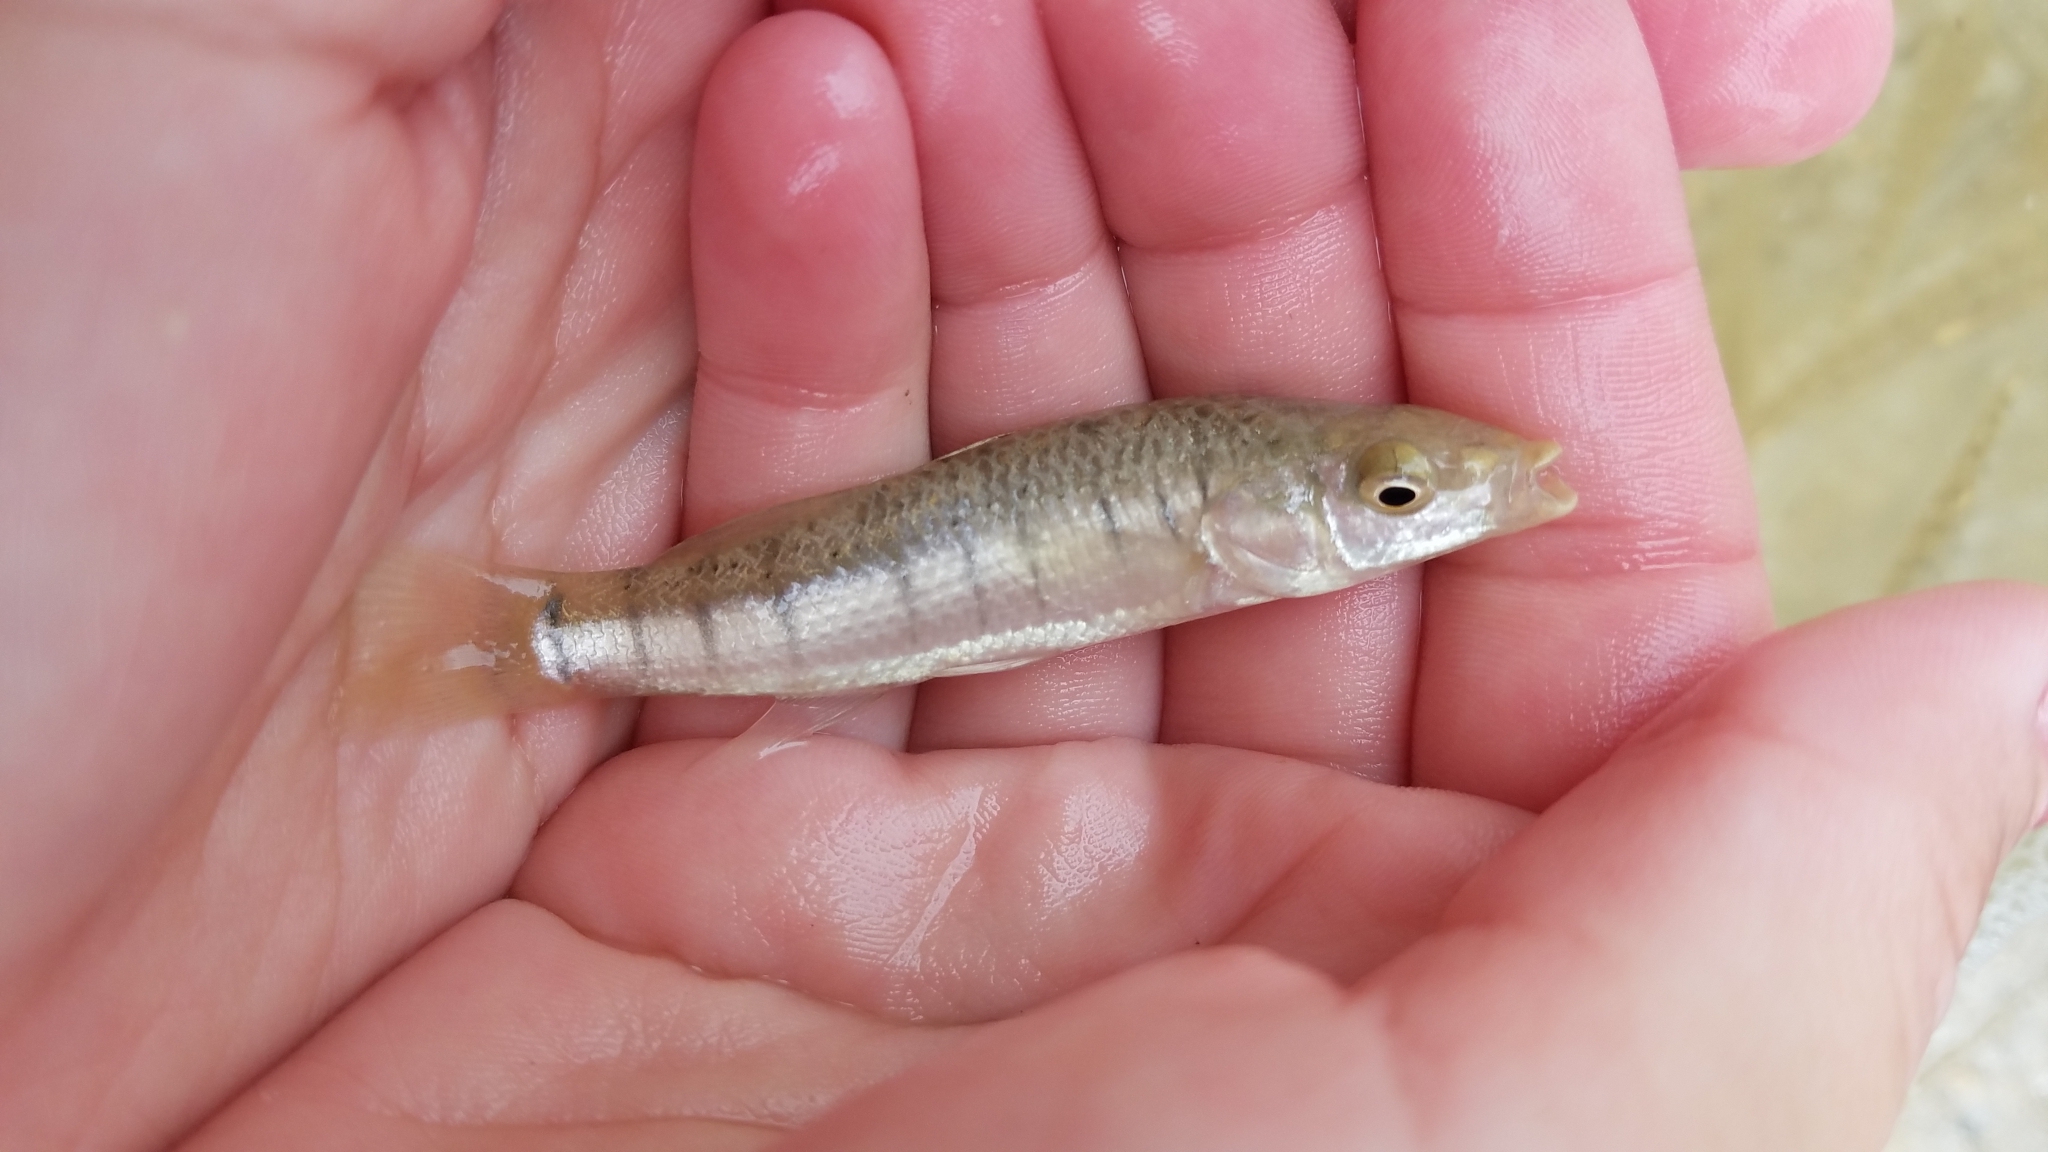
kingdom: Animalia
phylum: Chordata
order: Cyprinodontiformes
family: Fundulidae
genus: Fundulus
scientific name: Fundulus majalis
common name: Striped killifish
